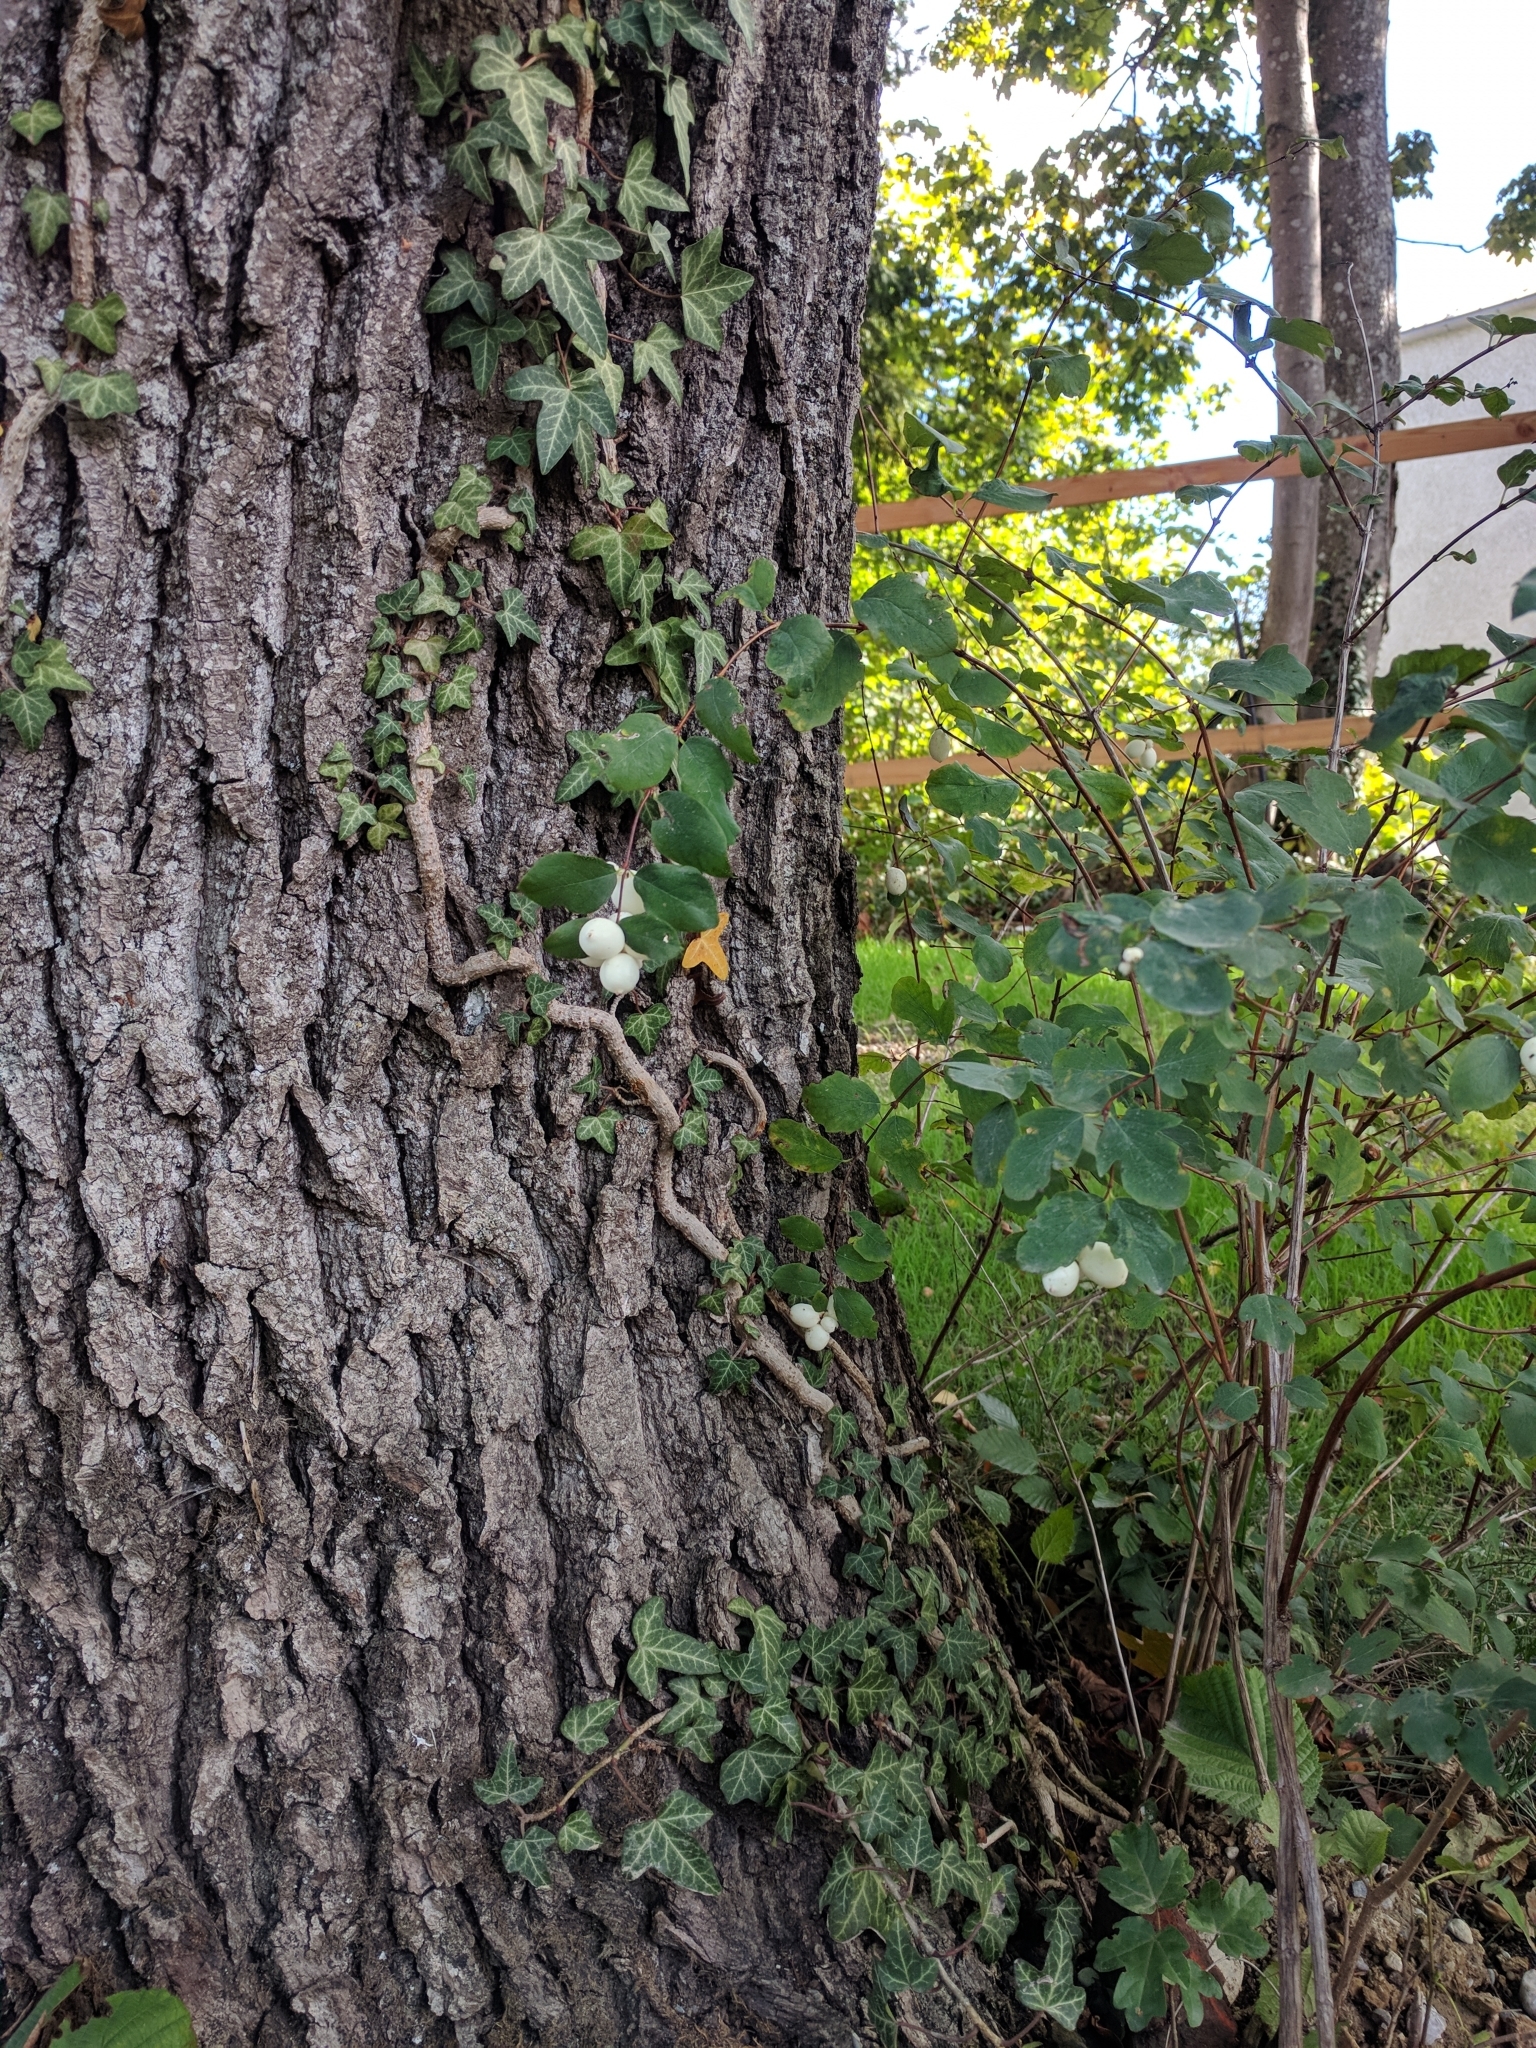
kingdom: Plantae
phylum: Tracheophyta
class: Magnoliopsida
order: Dipsacales
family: Caprifoliaceae
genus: Symphoricarpos
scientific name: Symphoricarpos albus
